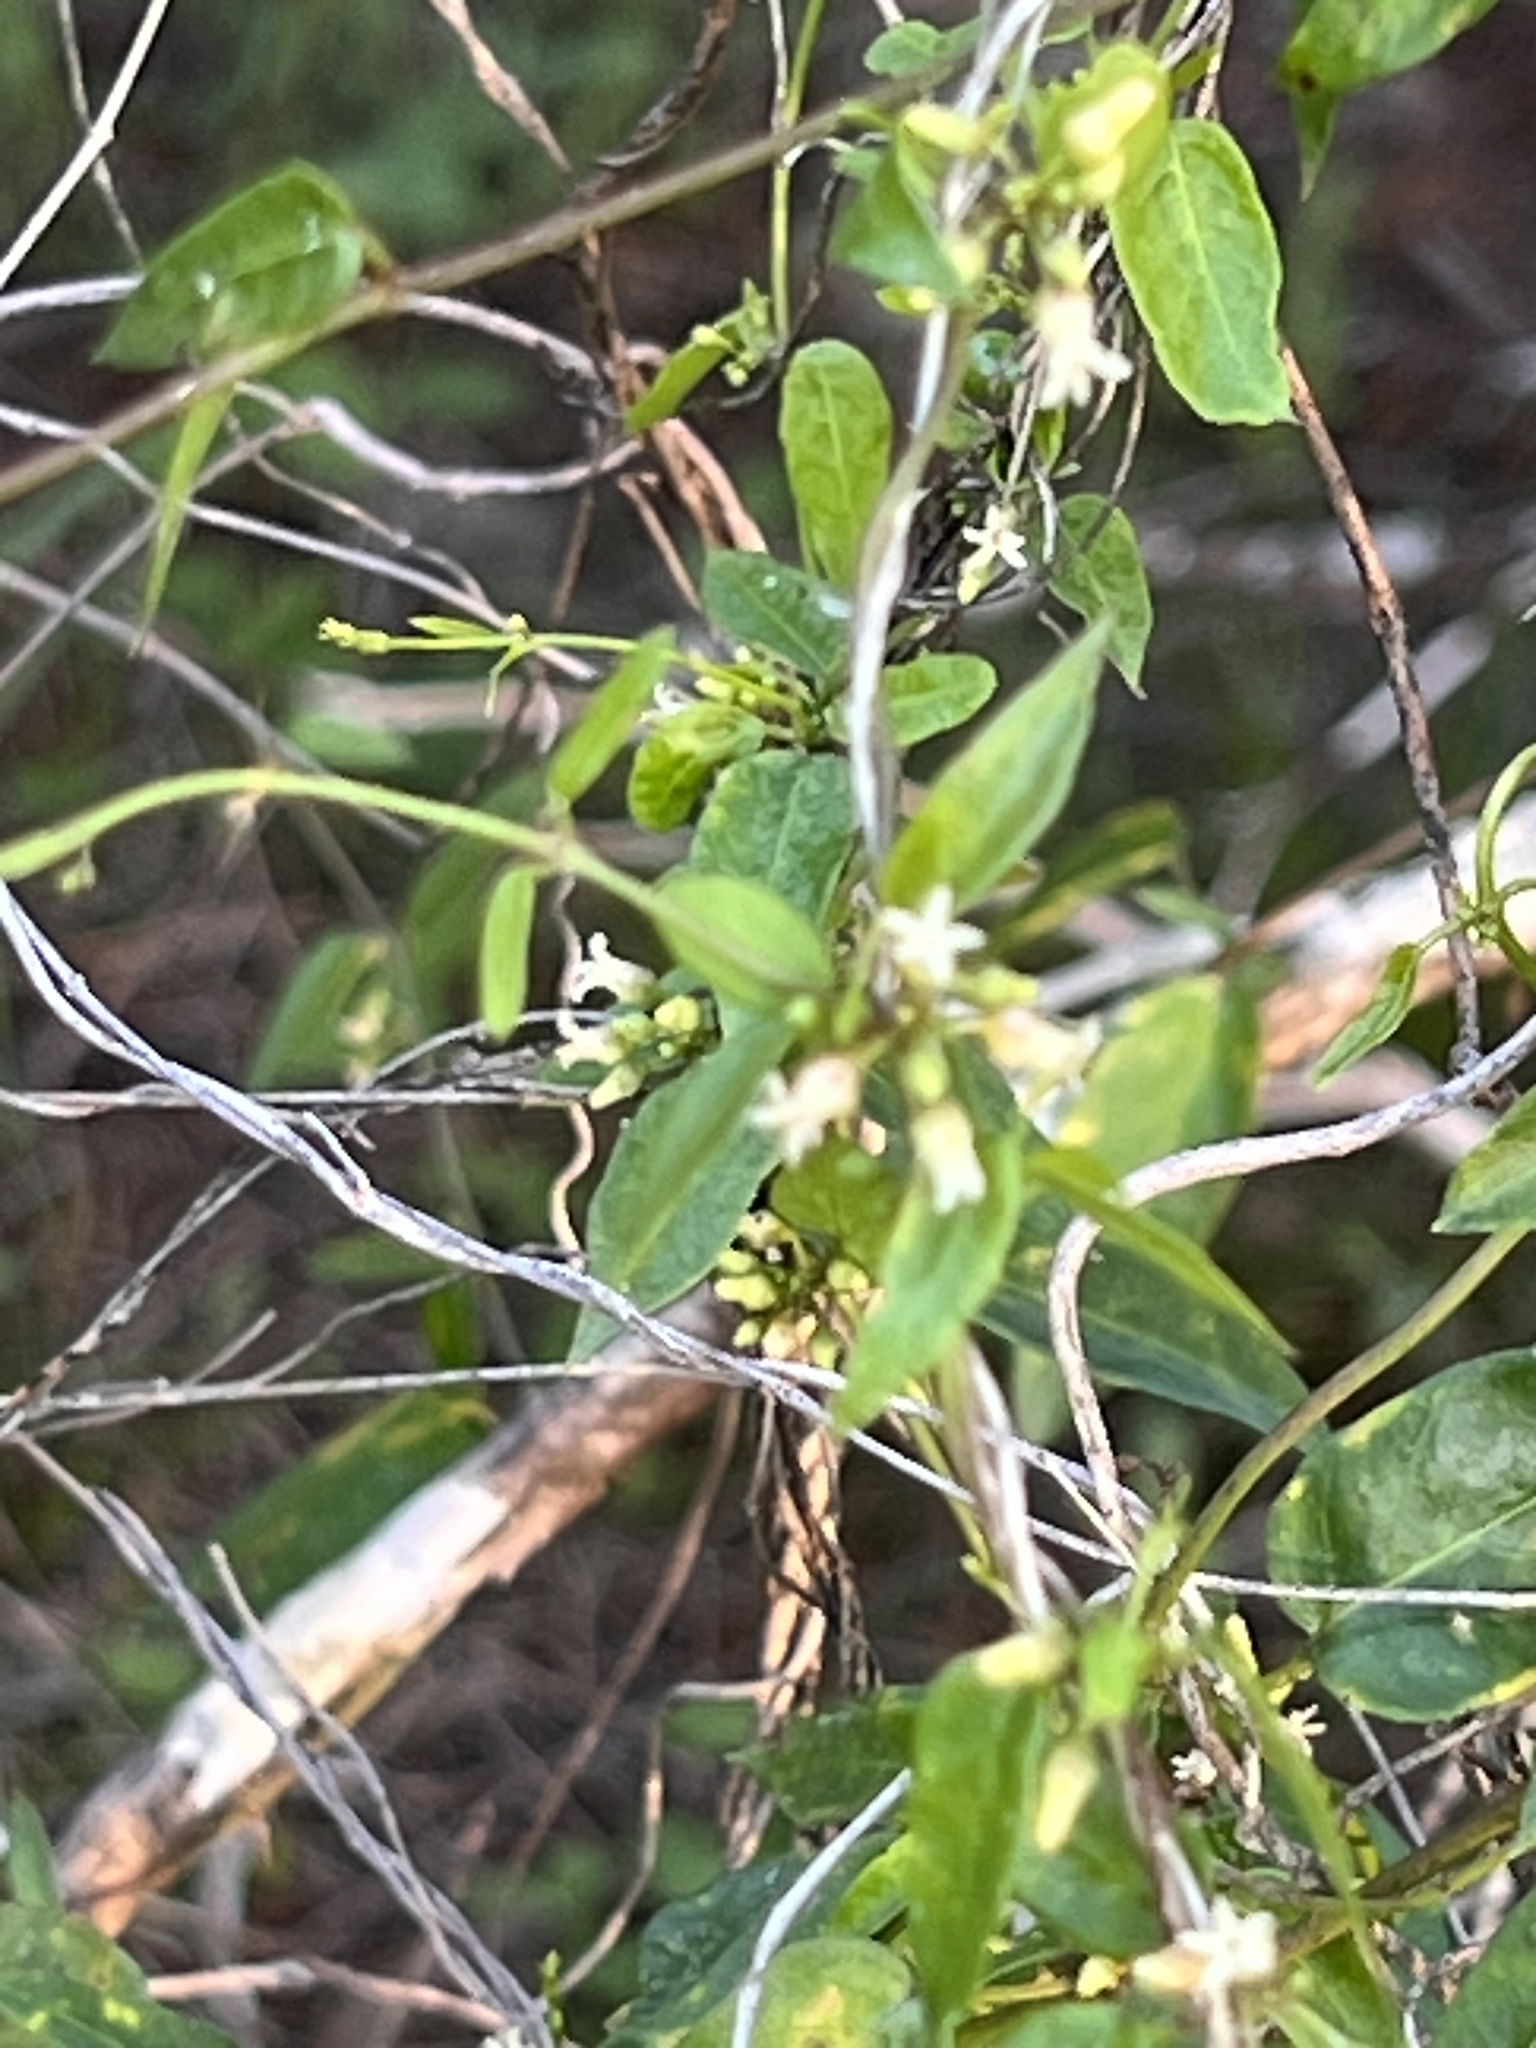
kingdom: Plantae
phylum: Tracheophyta
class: Magnoliopsida
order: Gentianales
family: Apocynaceae
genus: Metastelma
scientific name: Metastelma barbigerum
